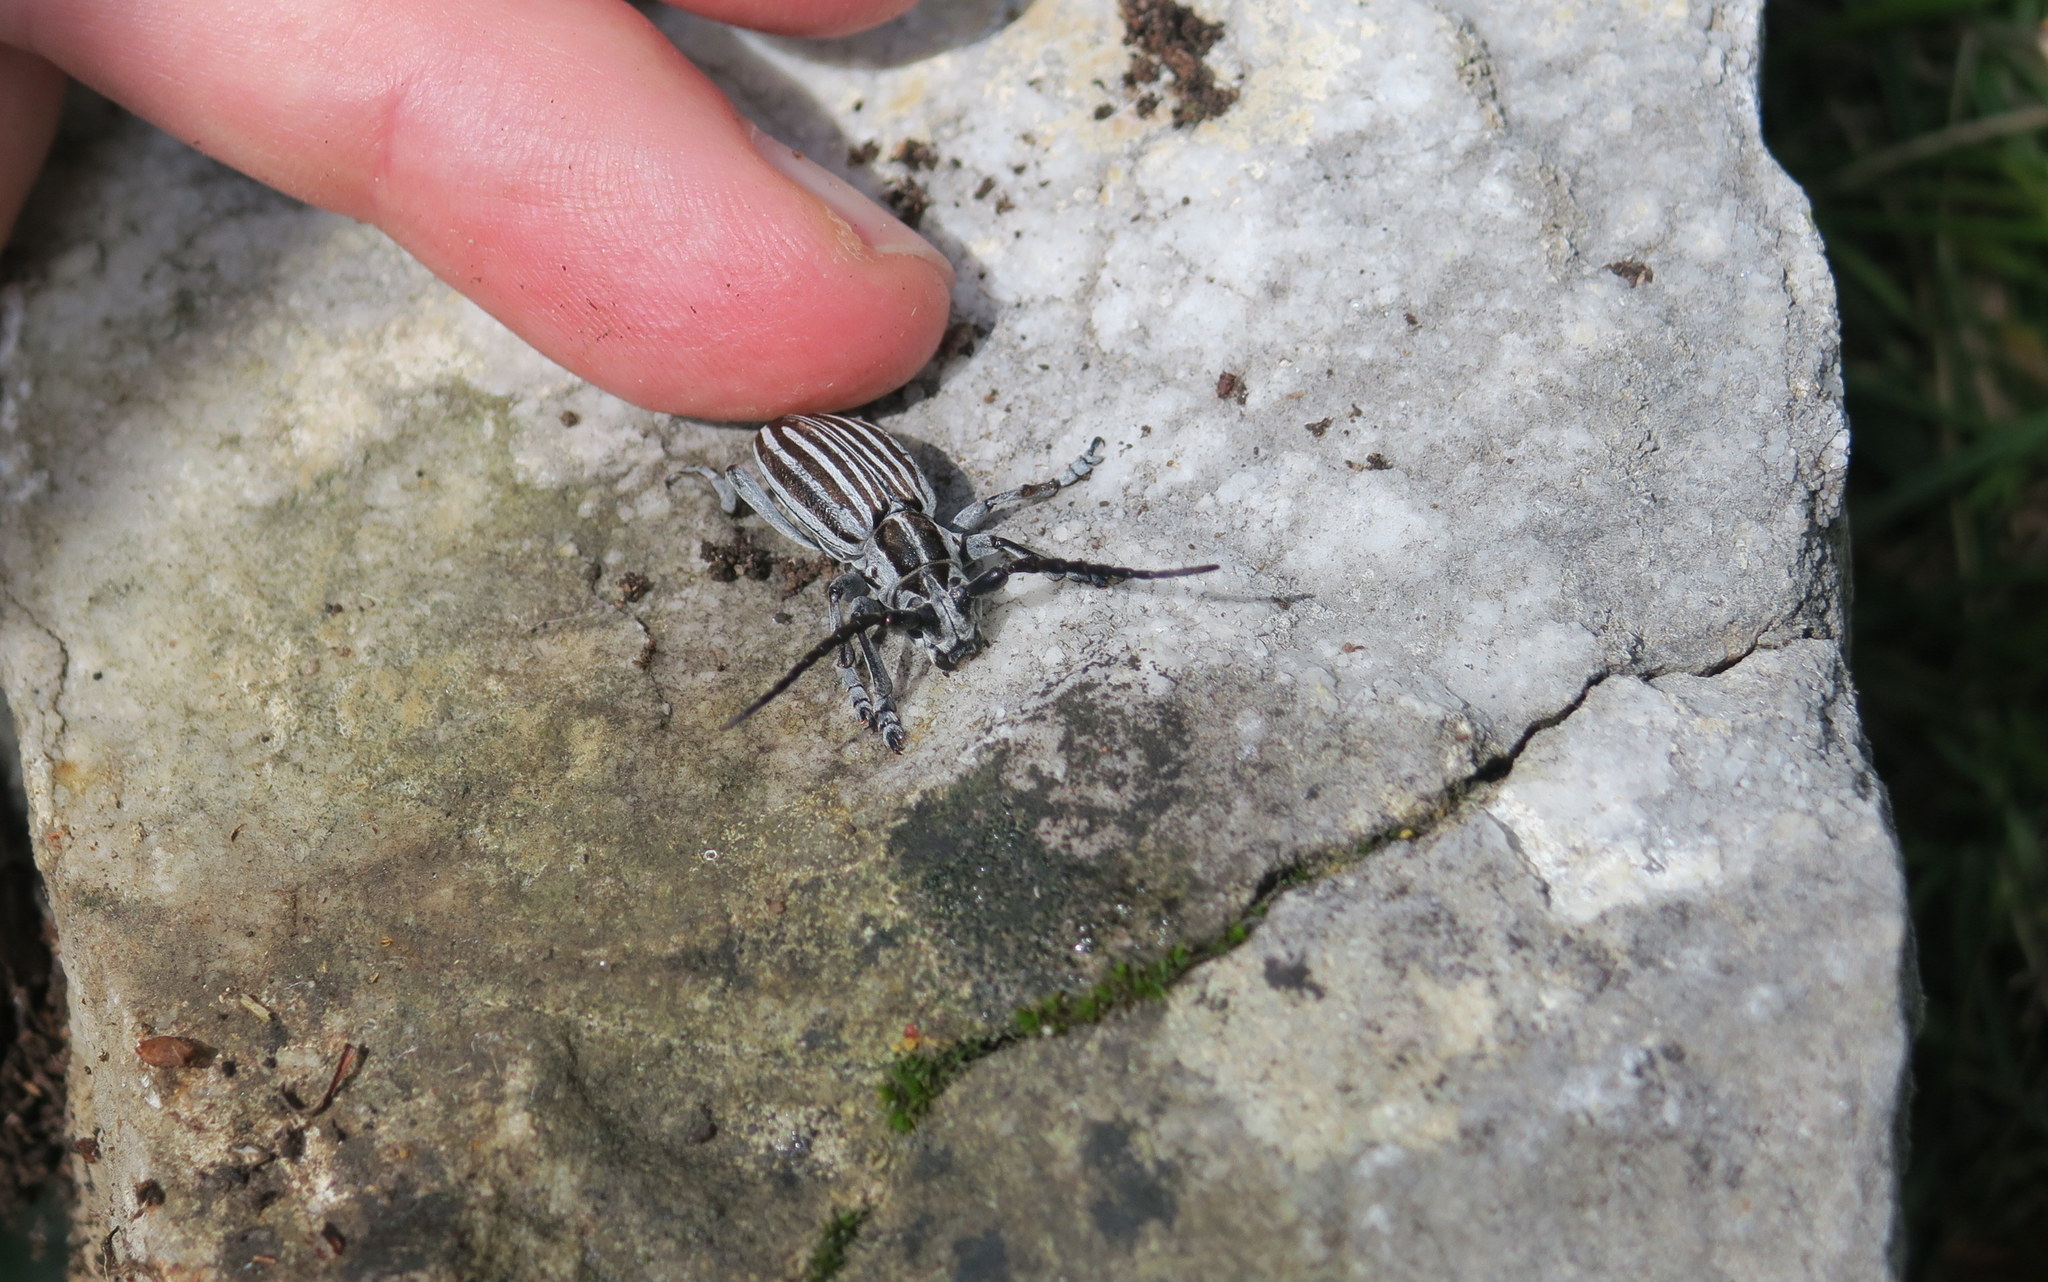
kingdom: Animalia
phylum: Arthropoda
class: Insecta
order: Coleoptera
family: Cerambycidae
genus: Dorcadion
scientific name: Dorcadion buresi
